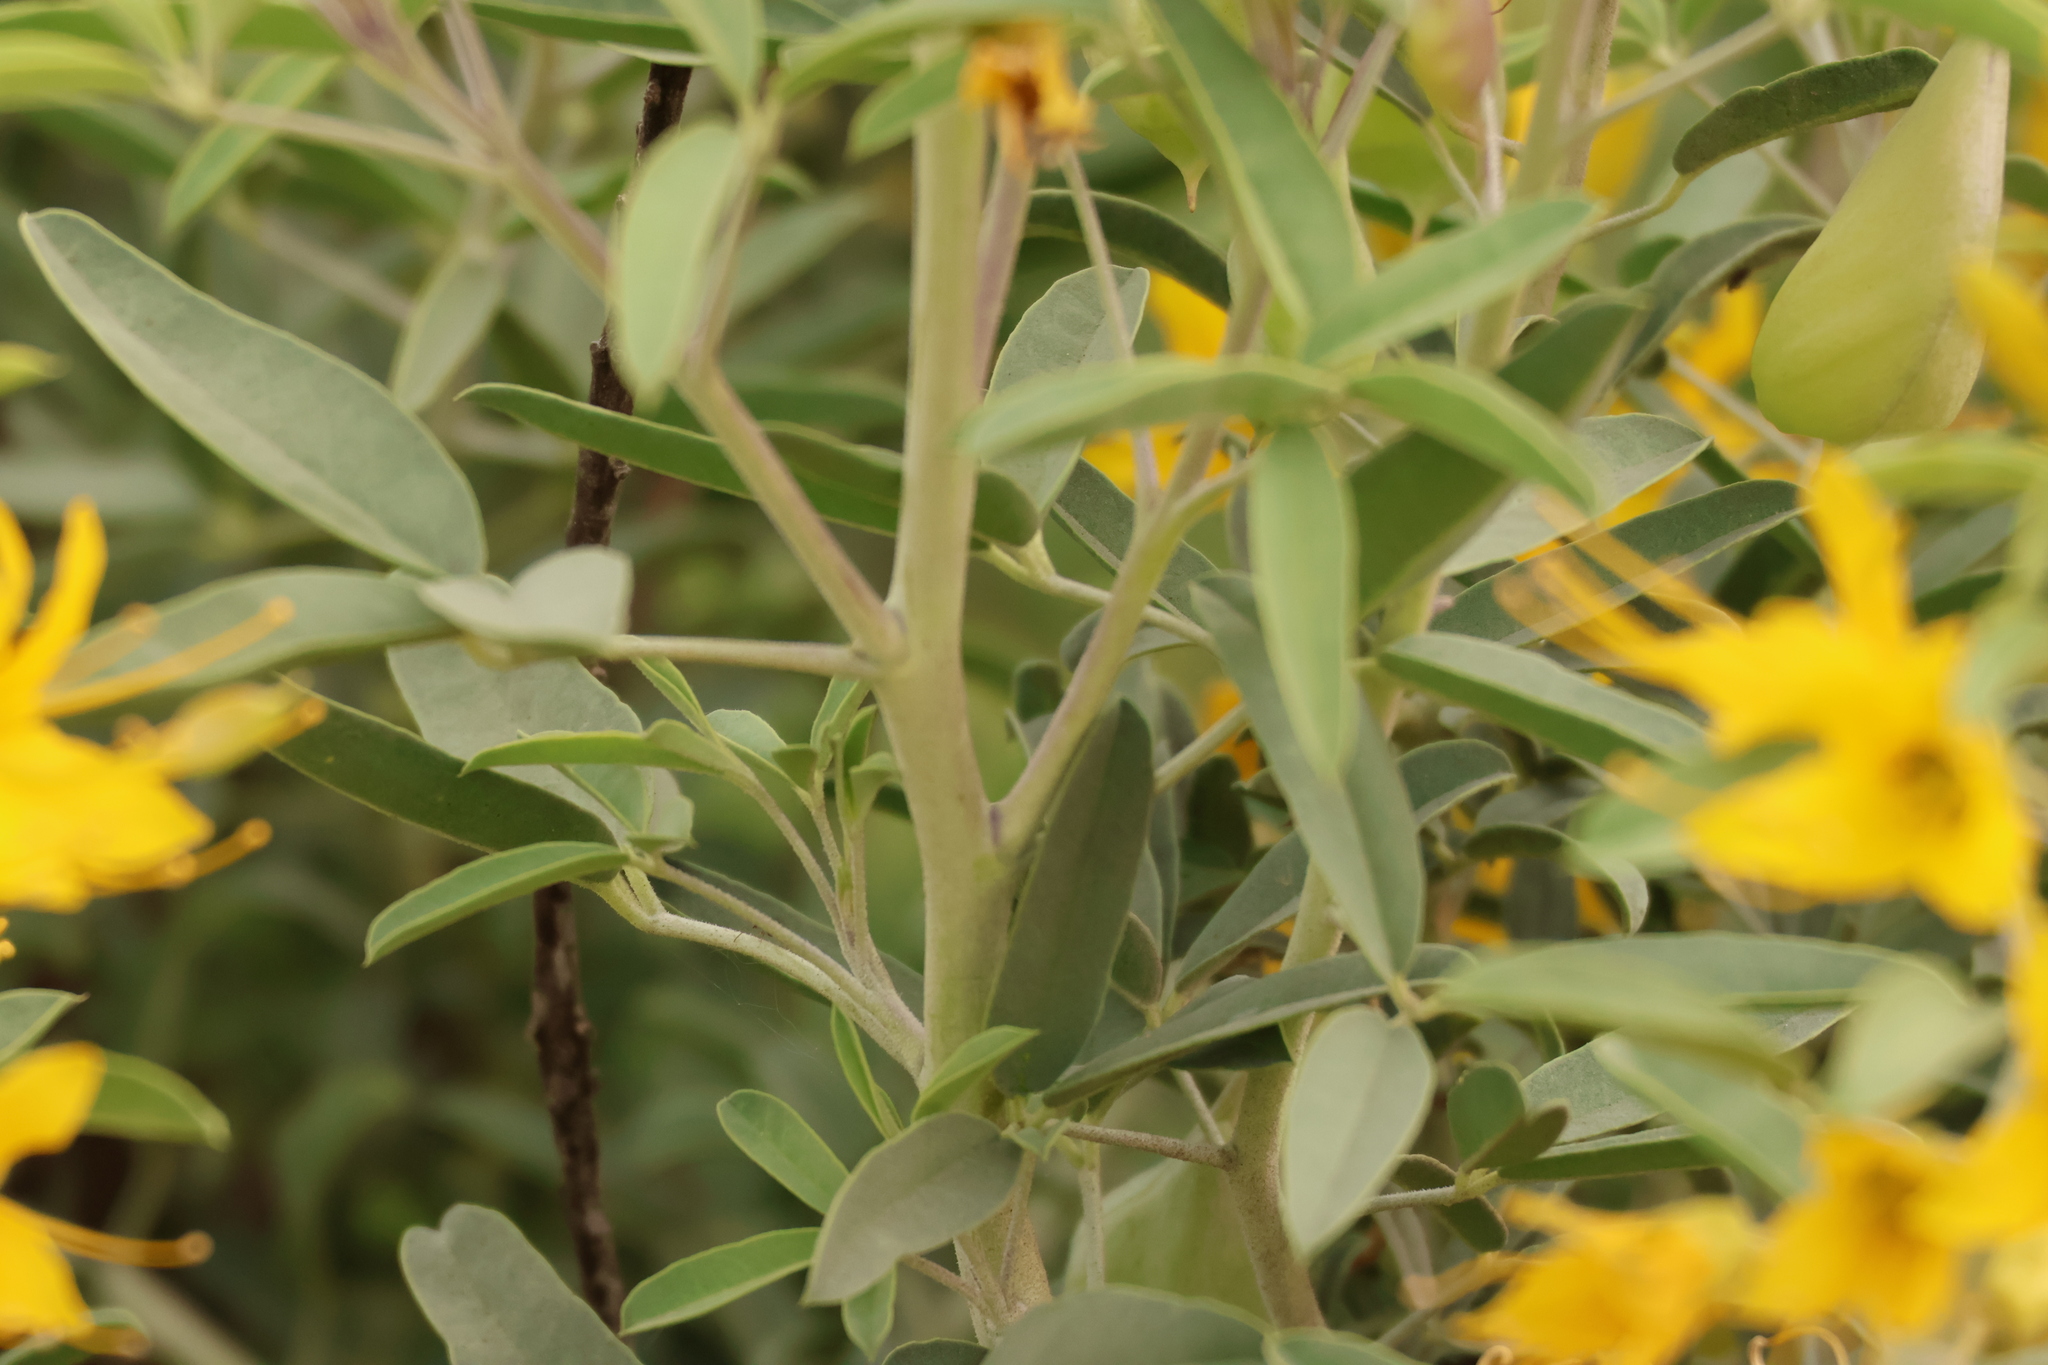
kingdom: Plantae
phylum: Tracheophyta
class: Magnoliopsida
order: Brassicales
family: Cleomaceae
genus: Cleomella
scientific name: Cleomella arborea
